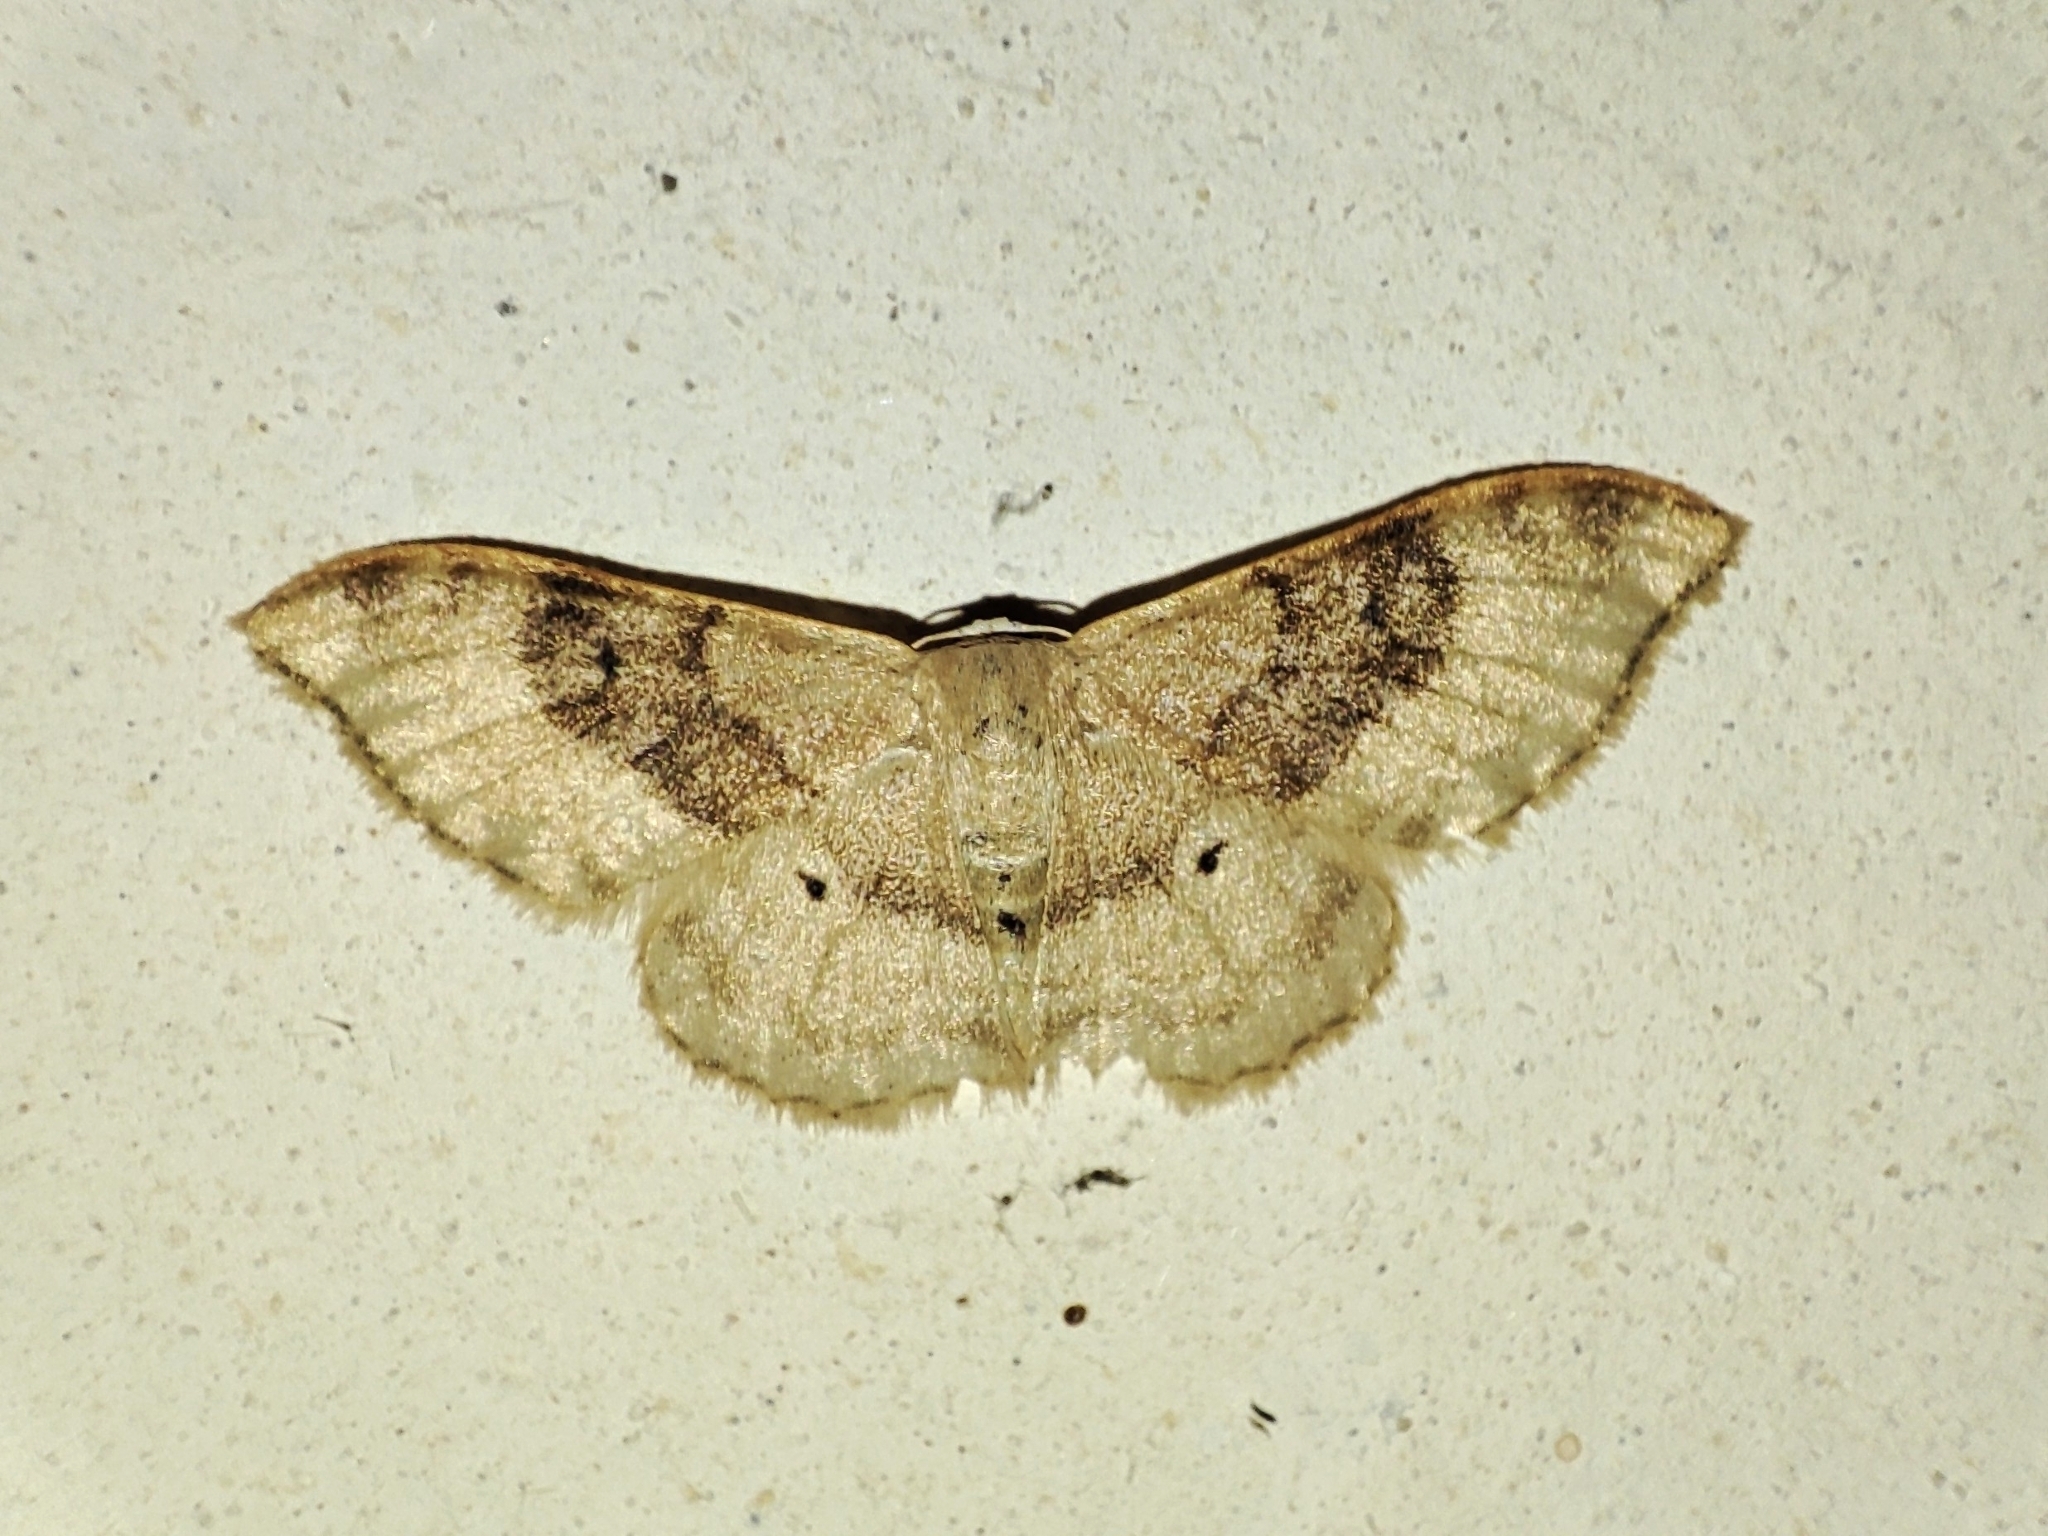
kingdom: Animalia
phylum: Arthropoda
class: Insecta
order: Lepidoptera
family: Geometridae
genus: Idaea
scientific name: Idaea degeneraria
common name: Portland ribbon wave
